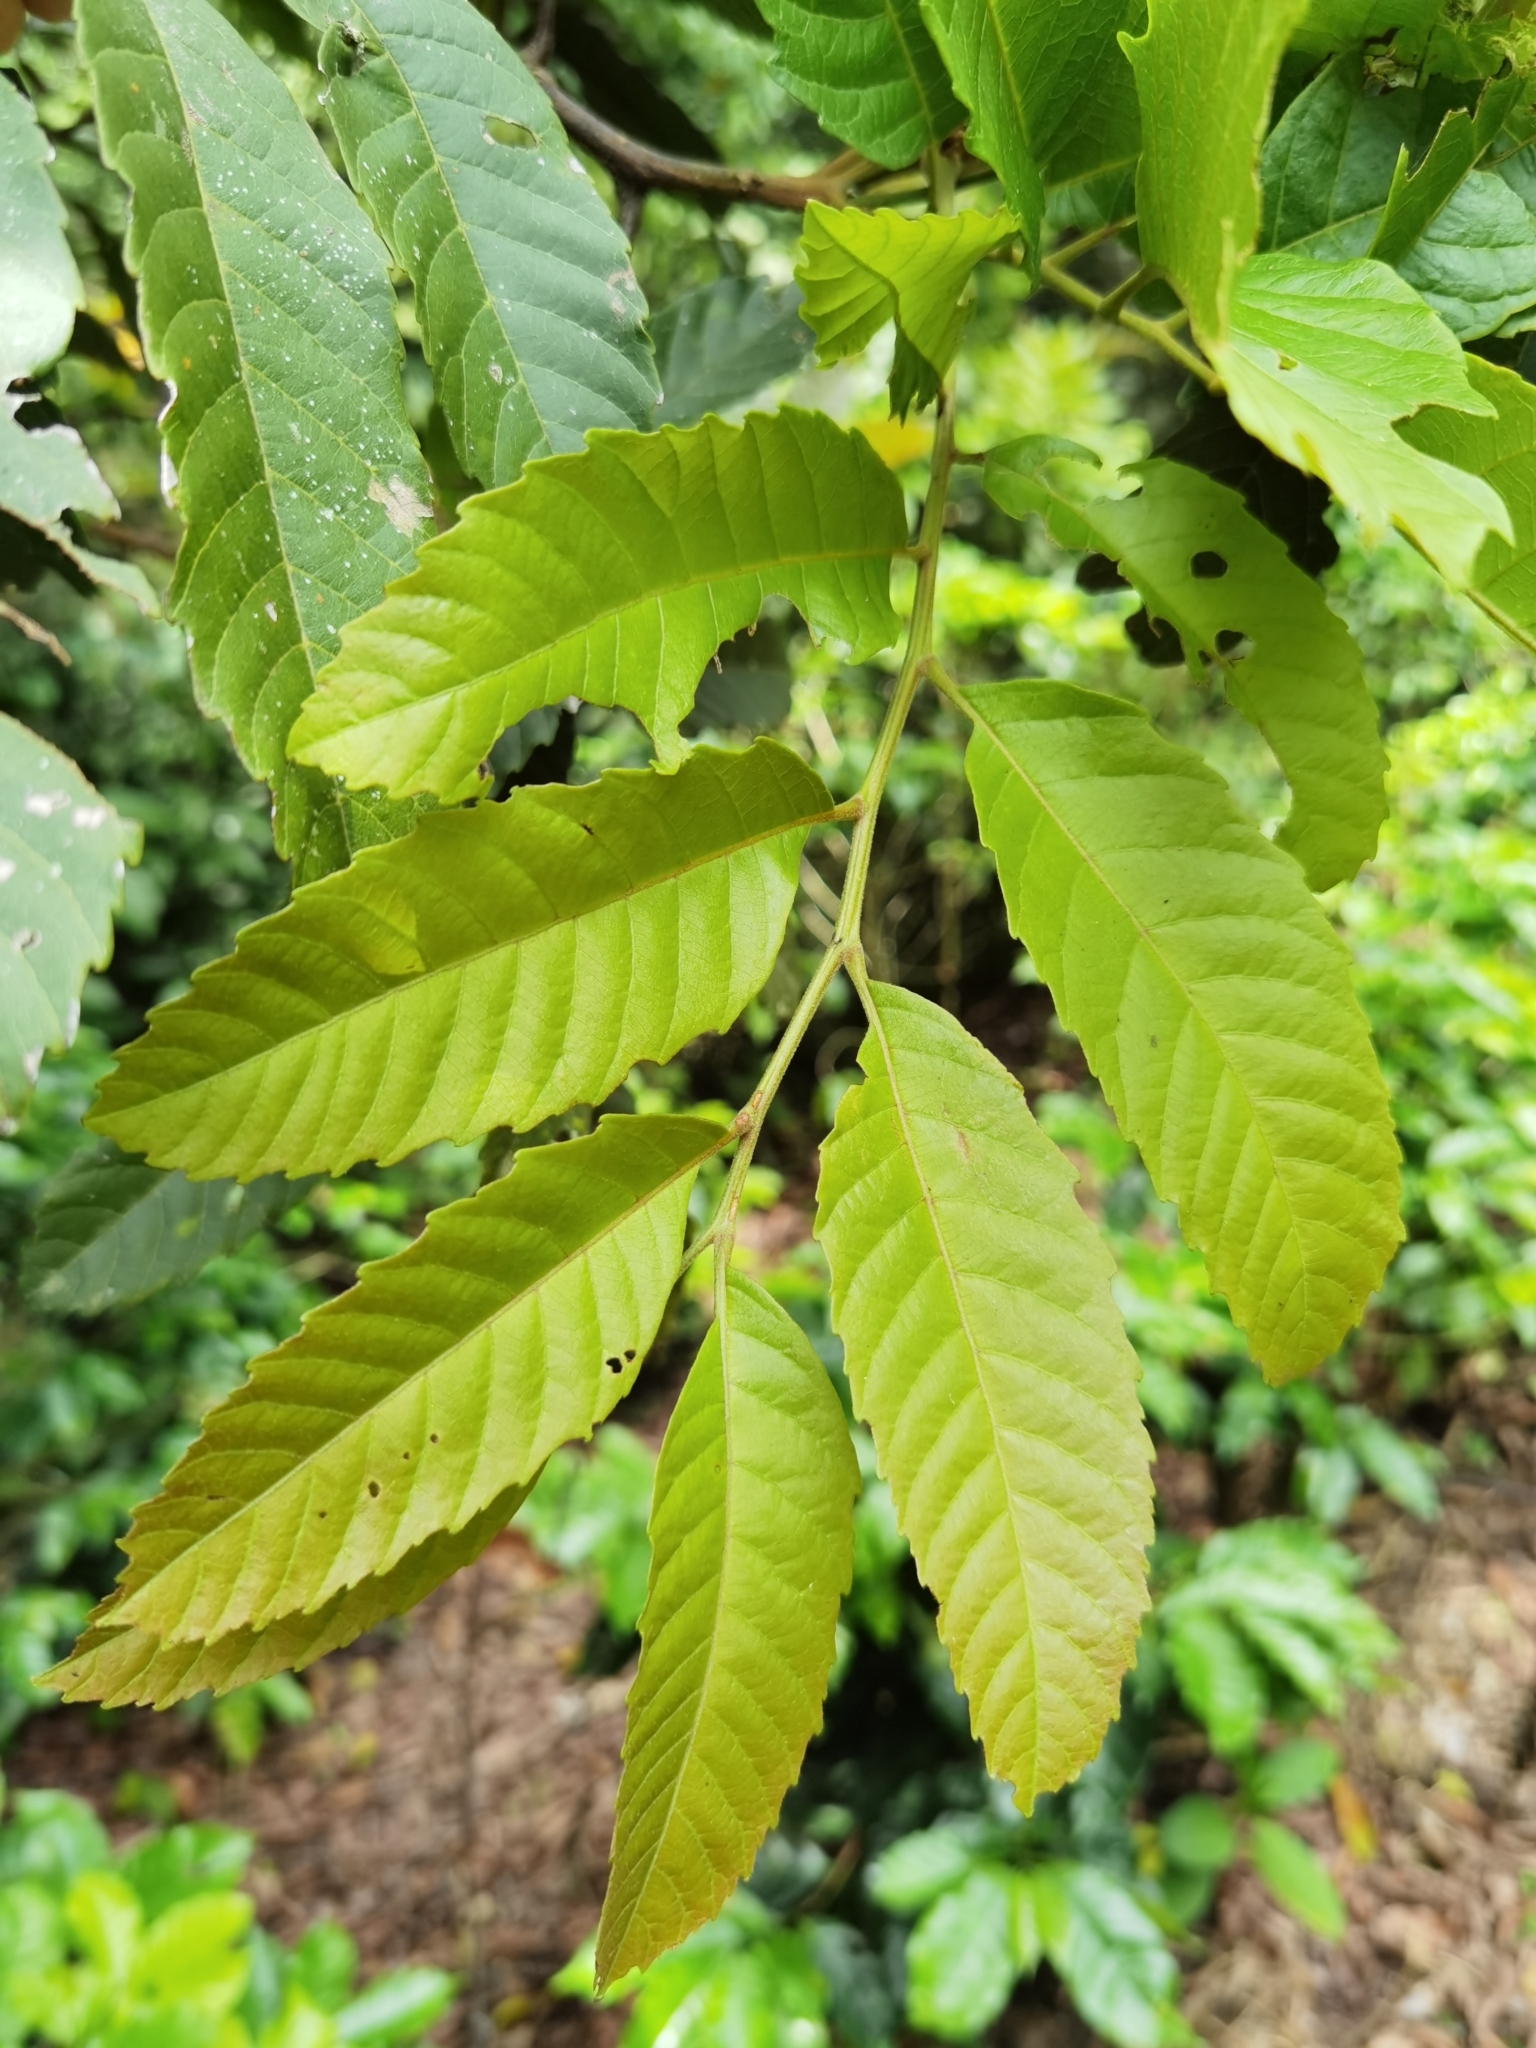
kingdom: Plantae
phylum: Tracheophyta
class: Magnoliopsida
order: Sapindales
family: Sapindaceae
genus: Cupania
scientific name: Cupania glabra
